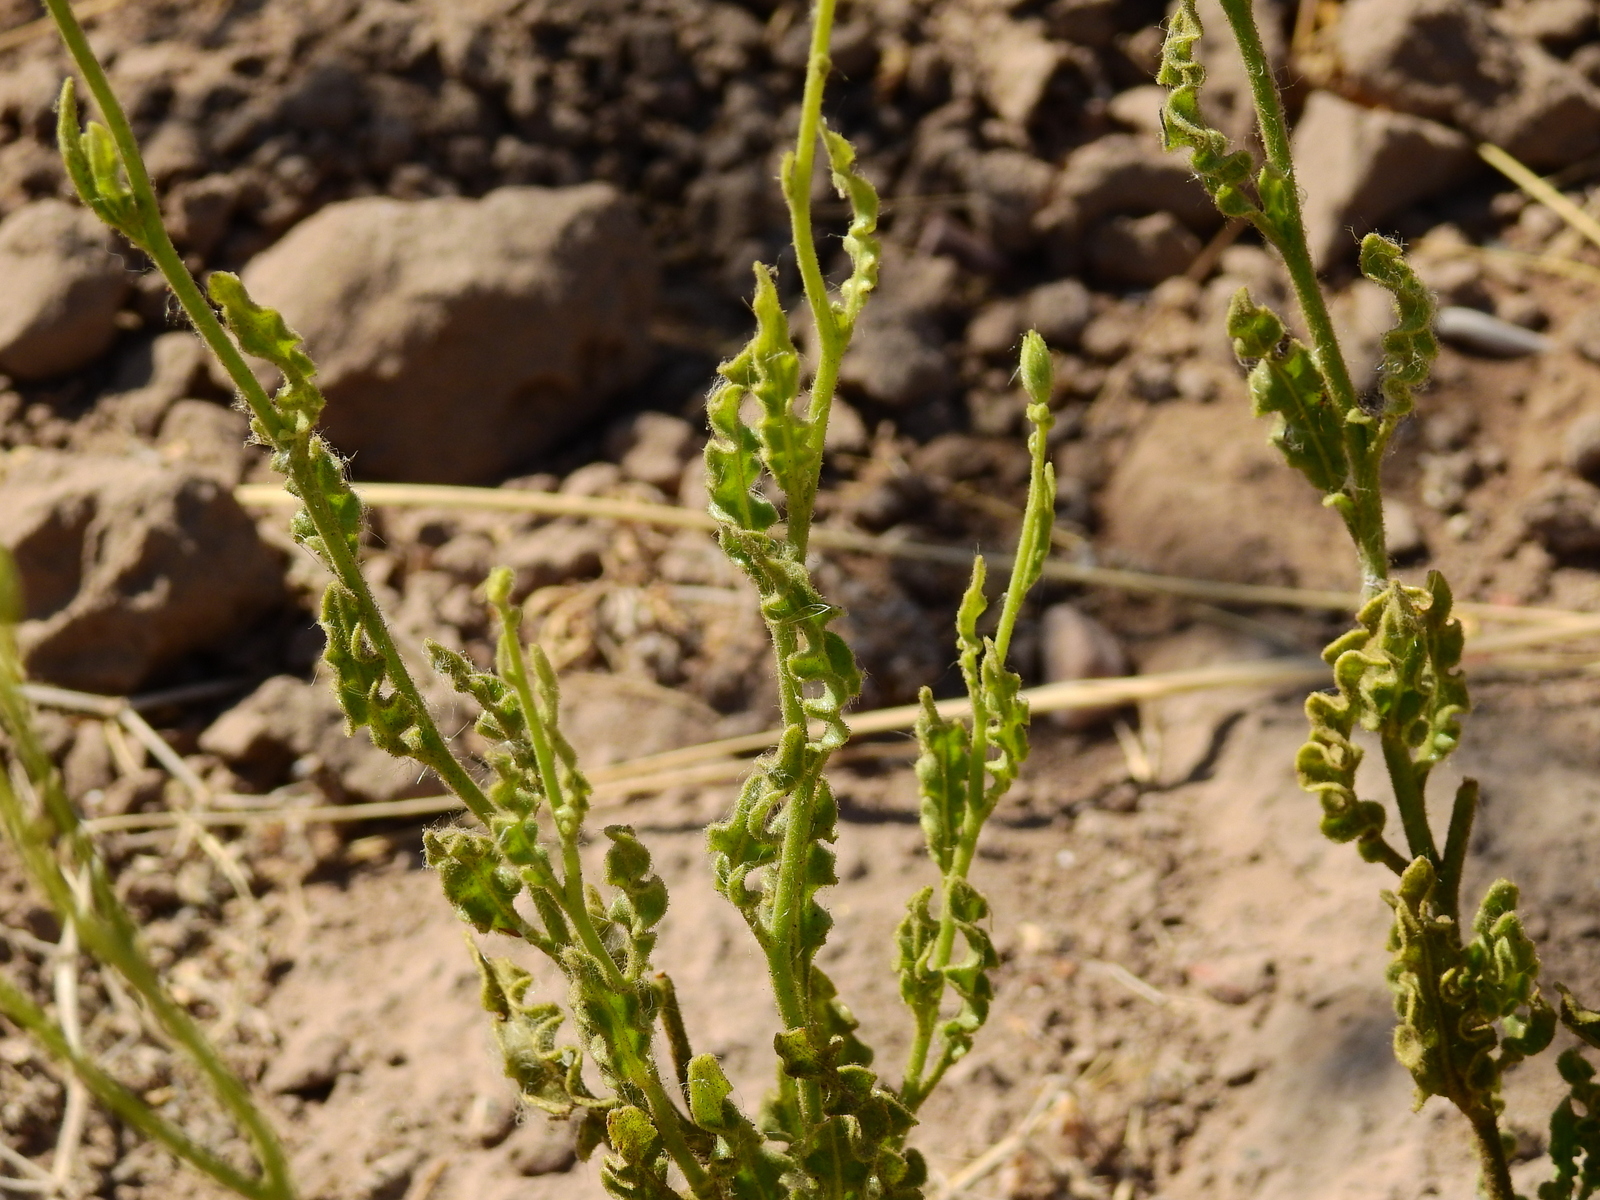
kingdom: Plantae
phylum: Tracheophyta
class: Magnoliopsida
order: Solanales
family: Solanaceae
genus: Nicotiana
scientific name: Nicotiana noctiflora
